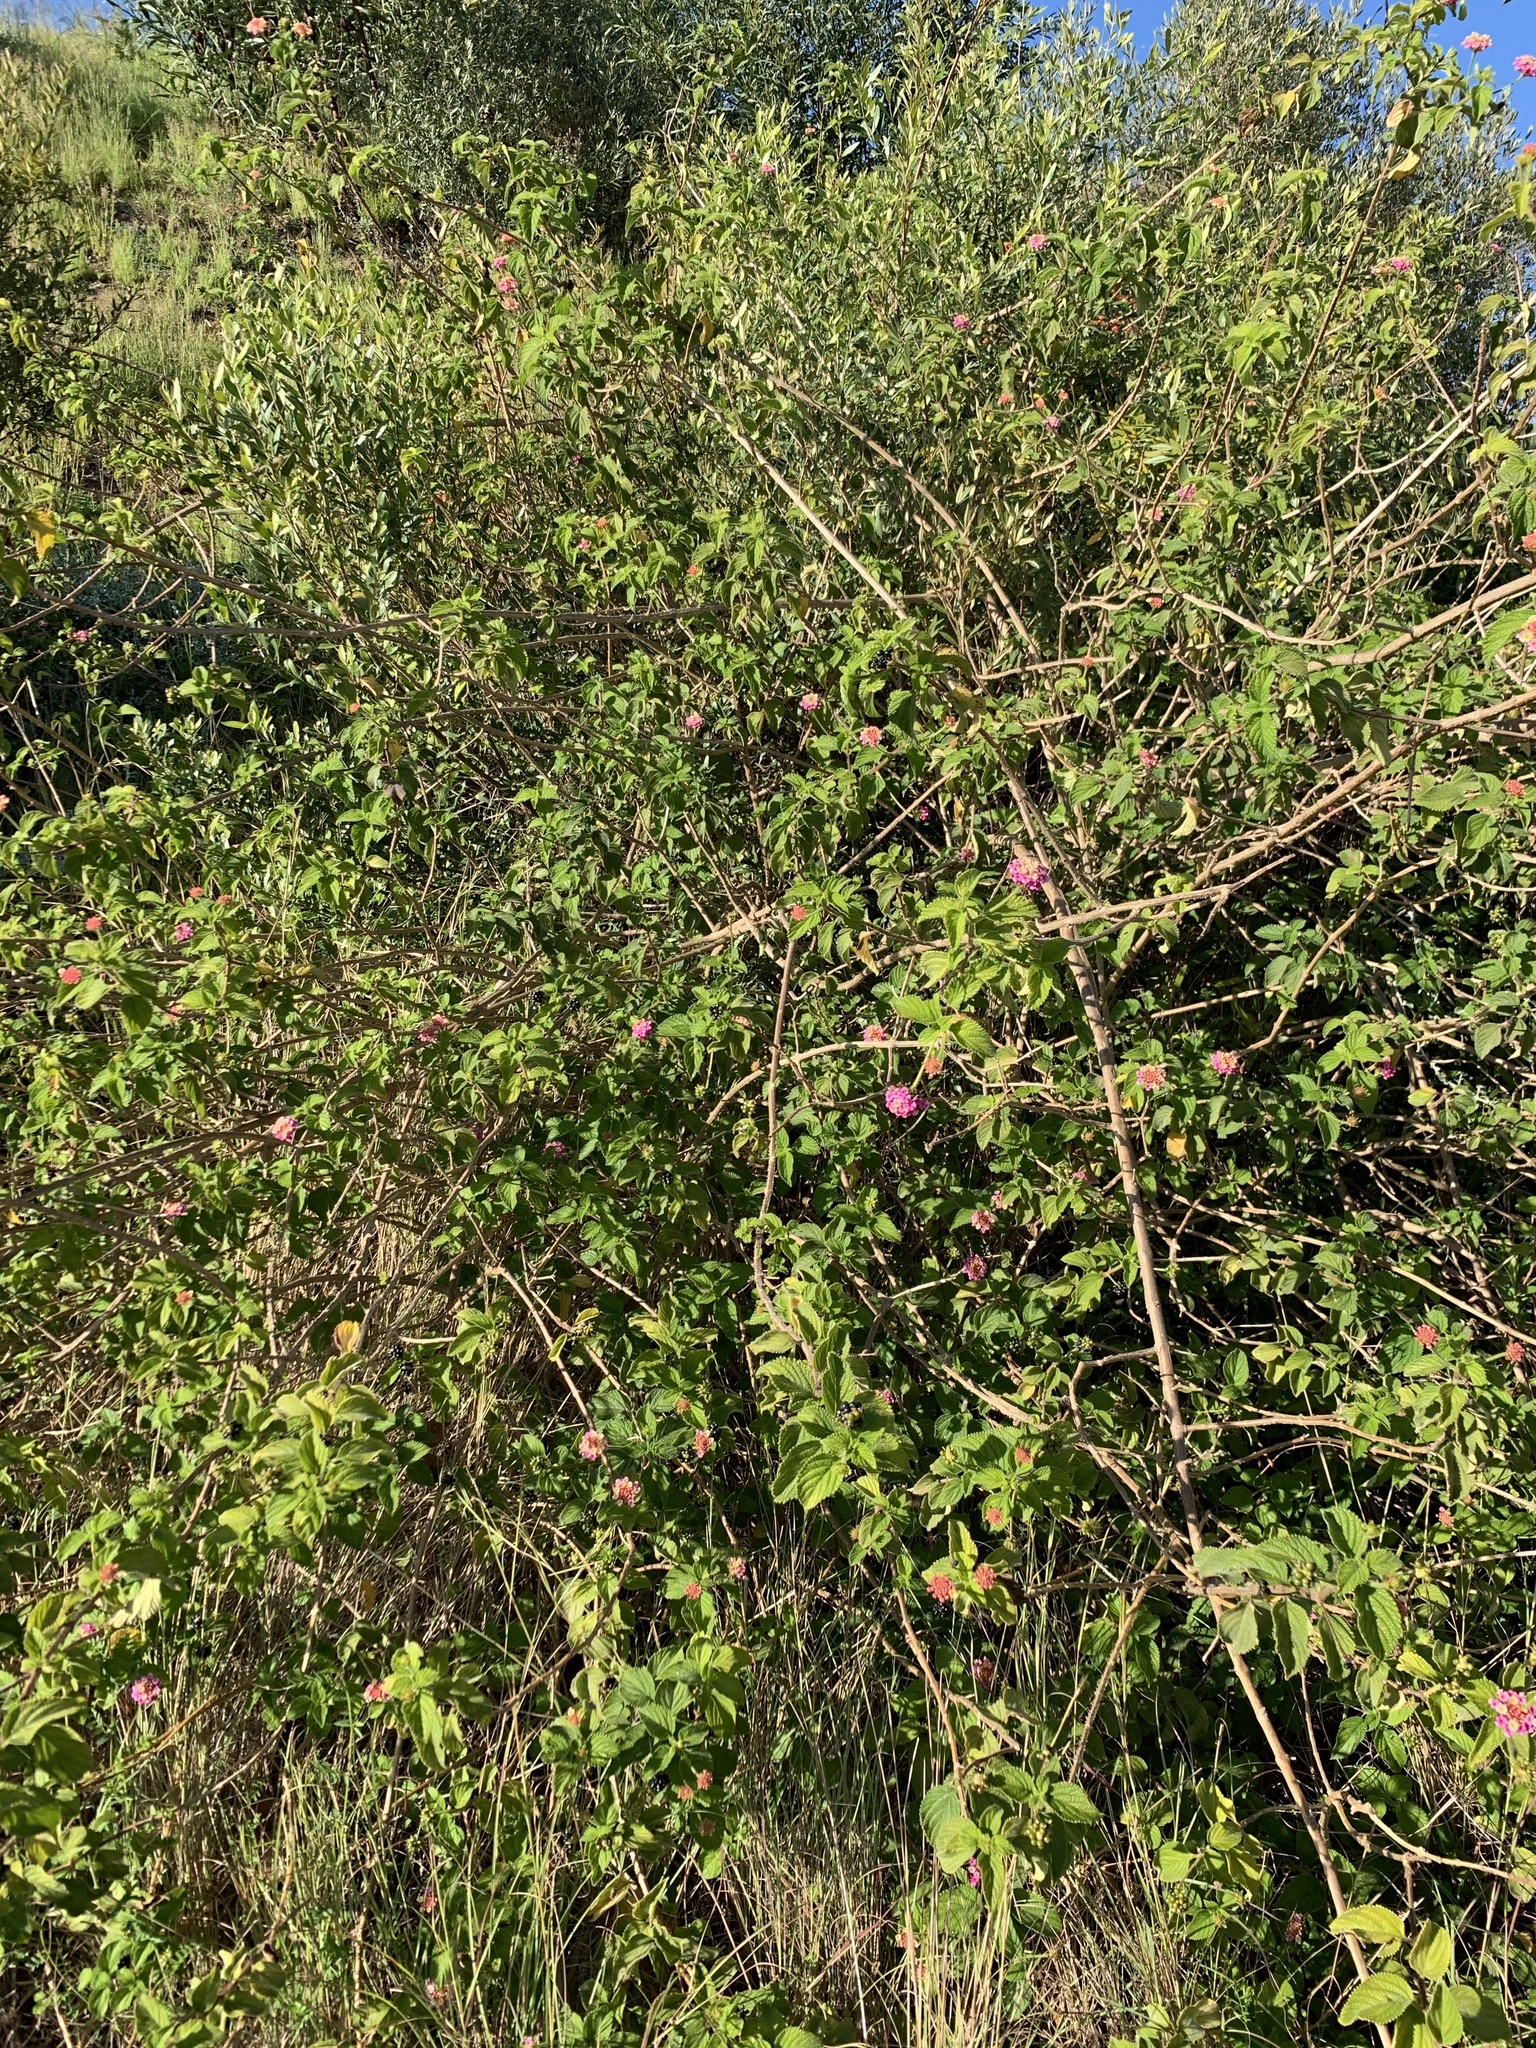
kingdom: Plantae
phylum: Tracheophyta
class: Magnoliopsida
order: Lamiales
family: Verbenaceae
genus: Lantana
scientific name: Lantana camara
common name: Lantana
